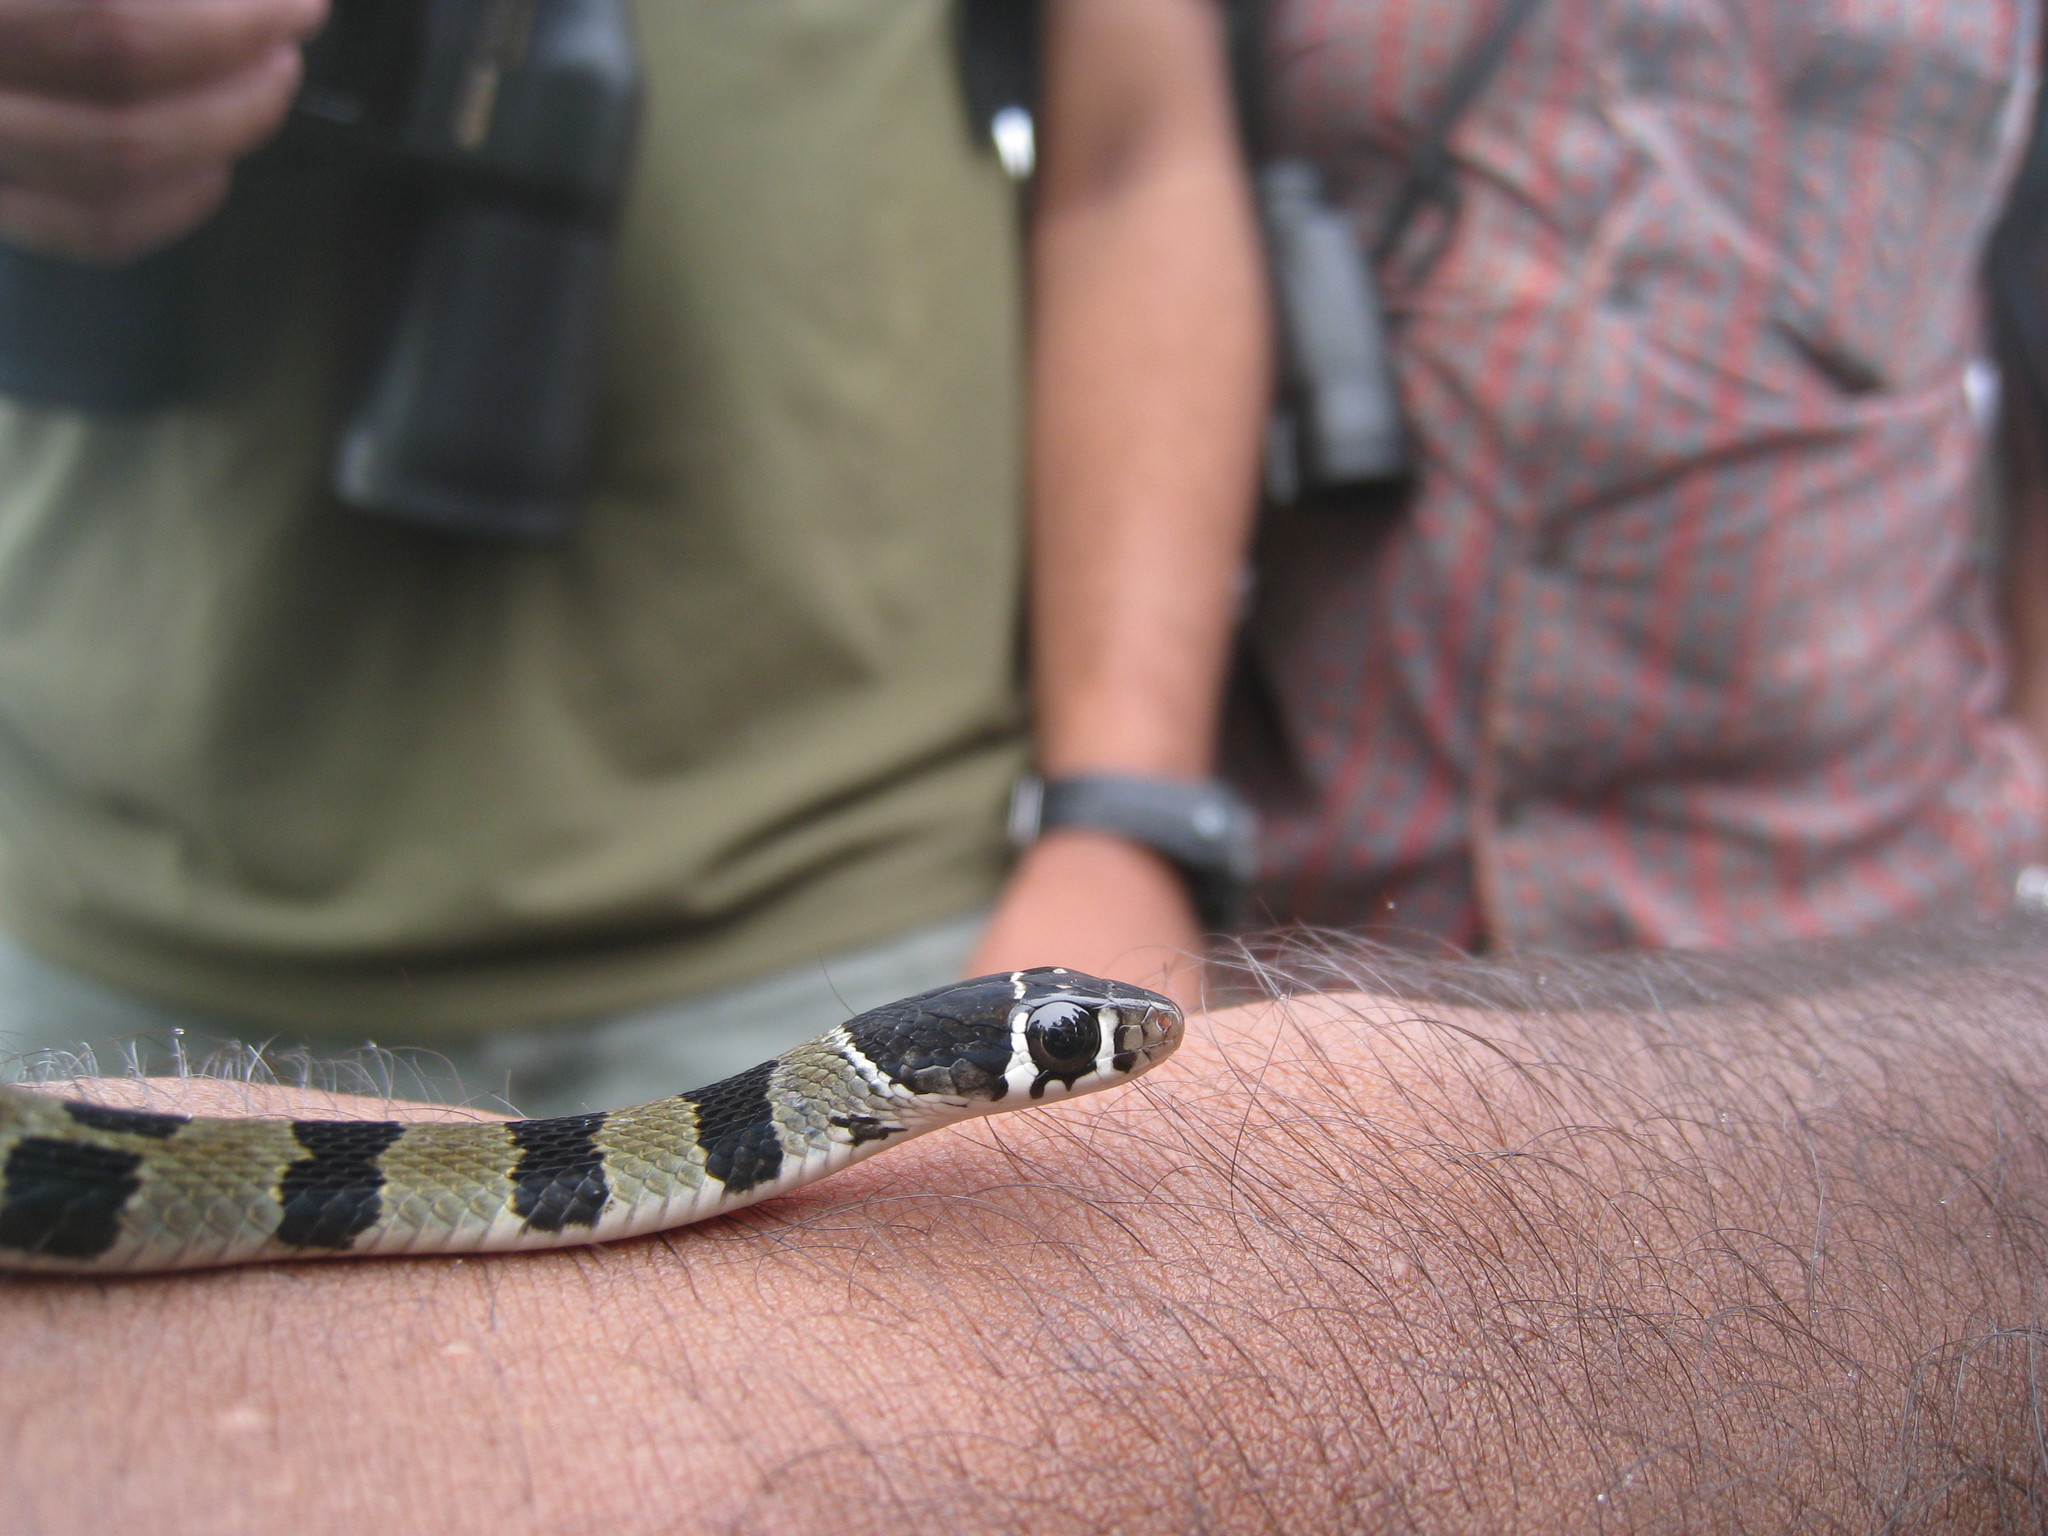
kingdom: Animalia
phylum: Chordata
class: Squamata
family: Colubridae
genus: Hebius
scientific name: Hebius monticola
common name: Wynad keelback
